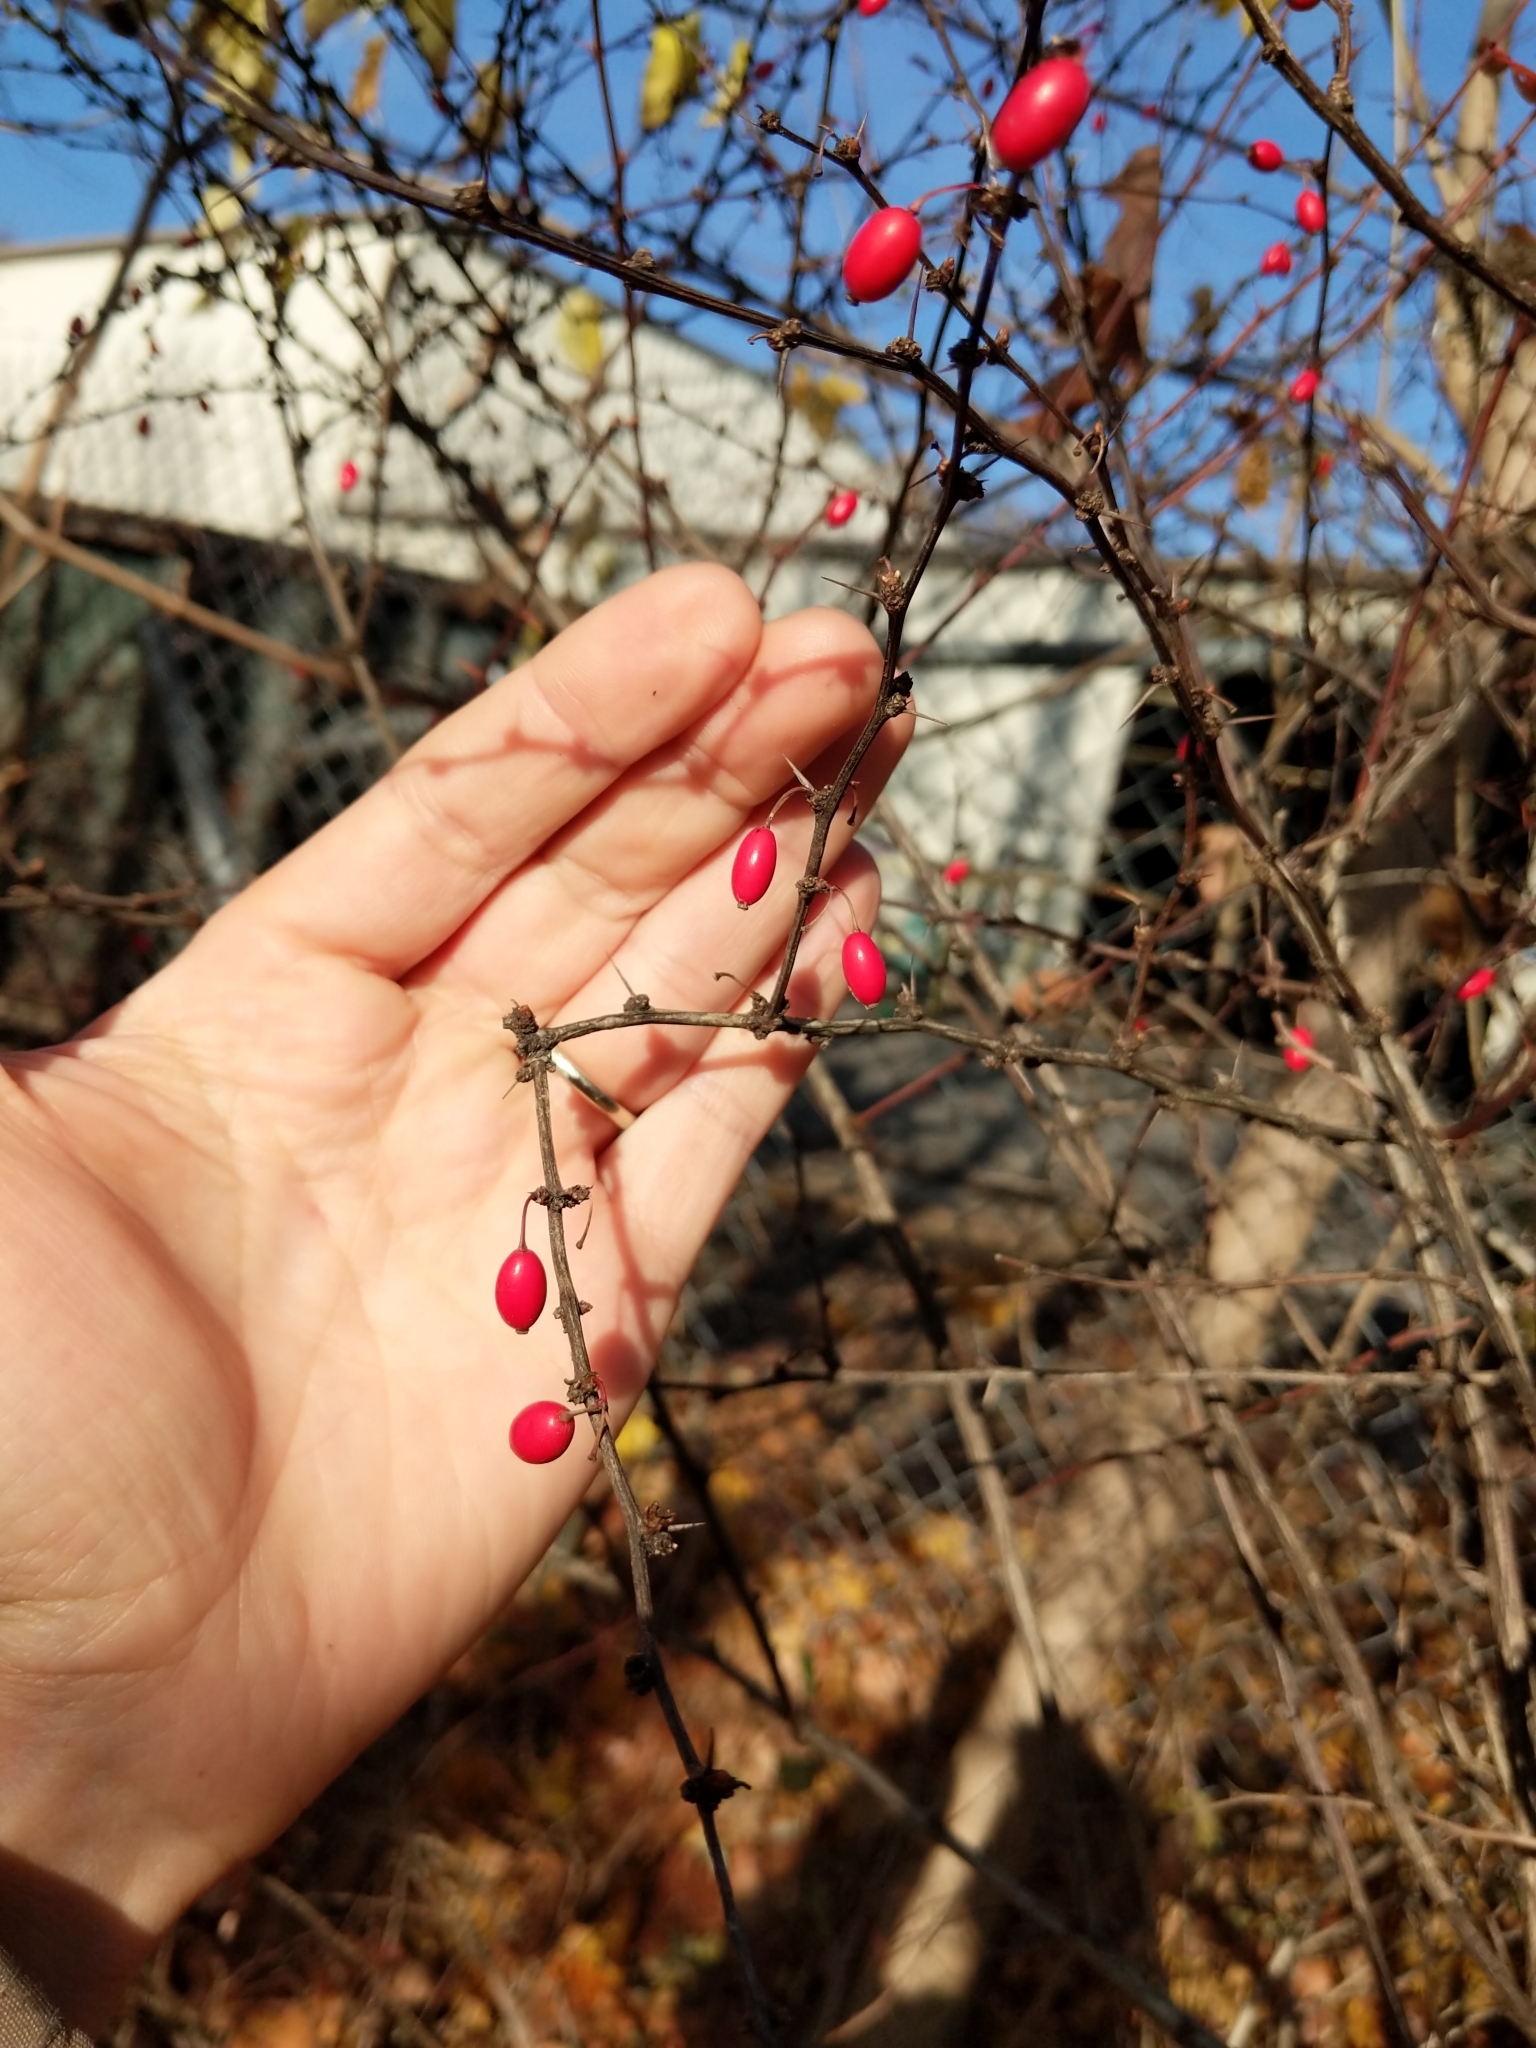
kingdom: Plantae
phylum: Tracheophyta
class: Magnoliopsida
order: Ranunculales
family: Berberidaceae
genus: Berberis
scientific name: Berberis thunbergii
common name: Japanese barberry
